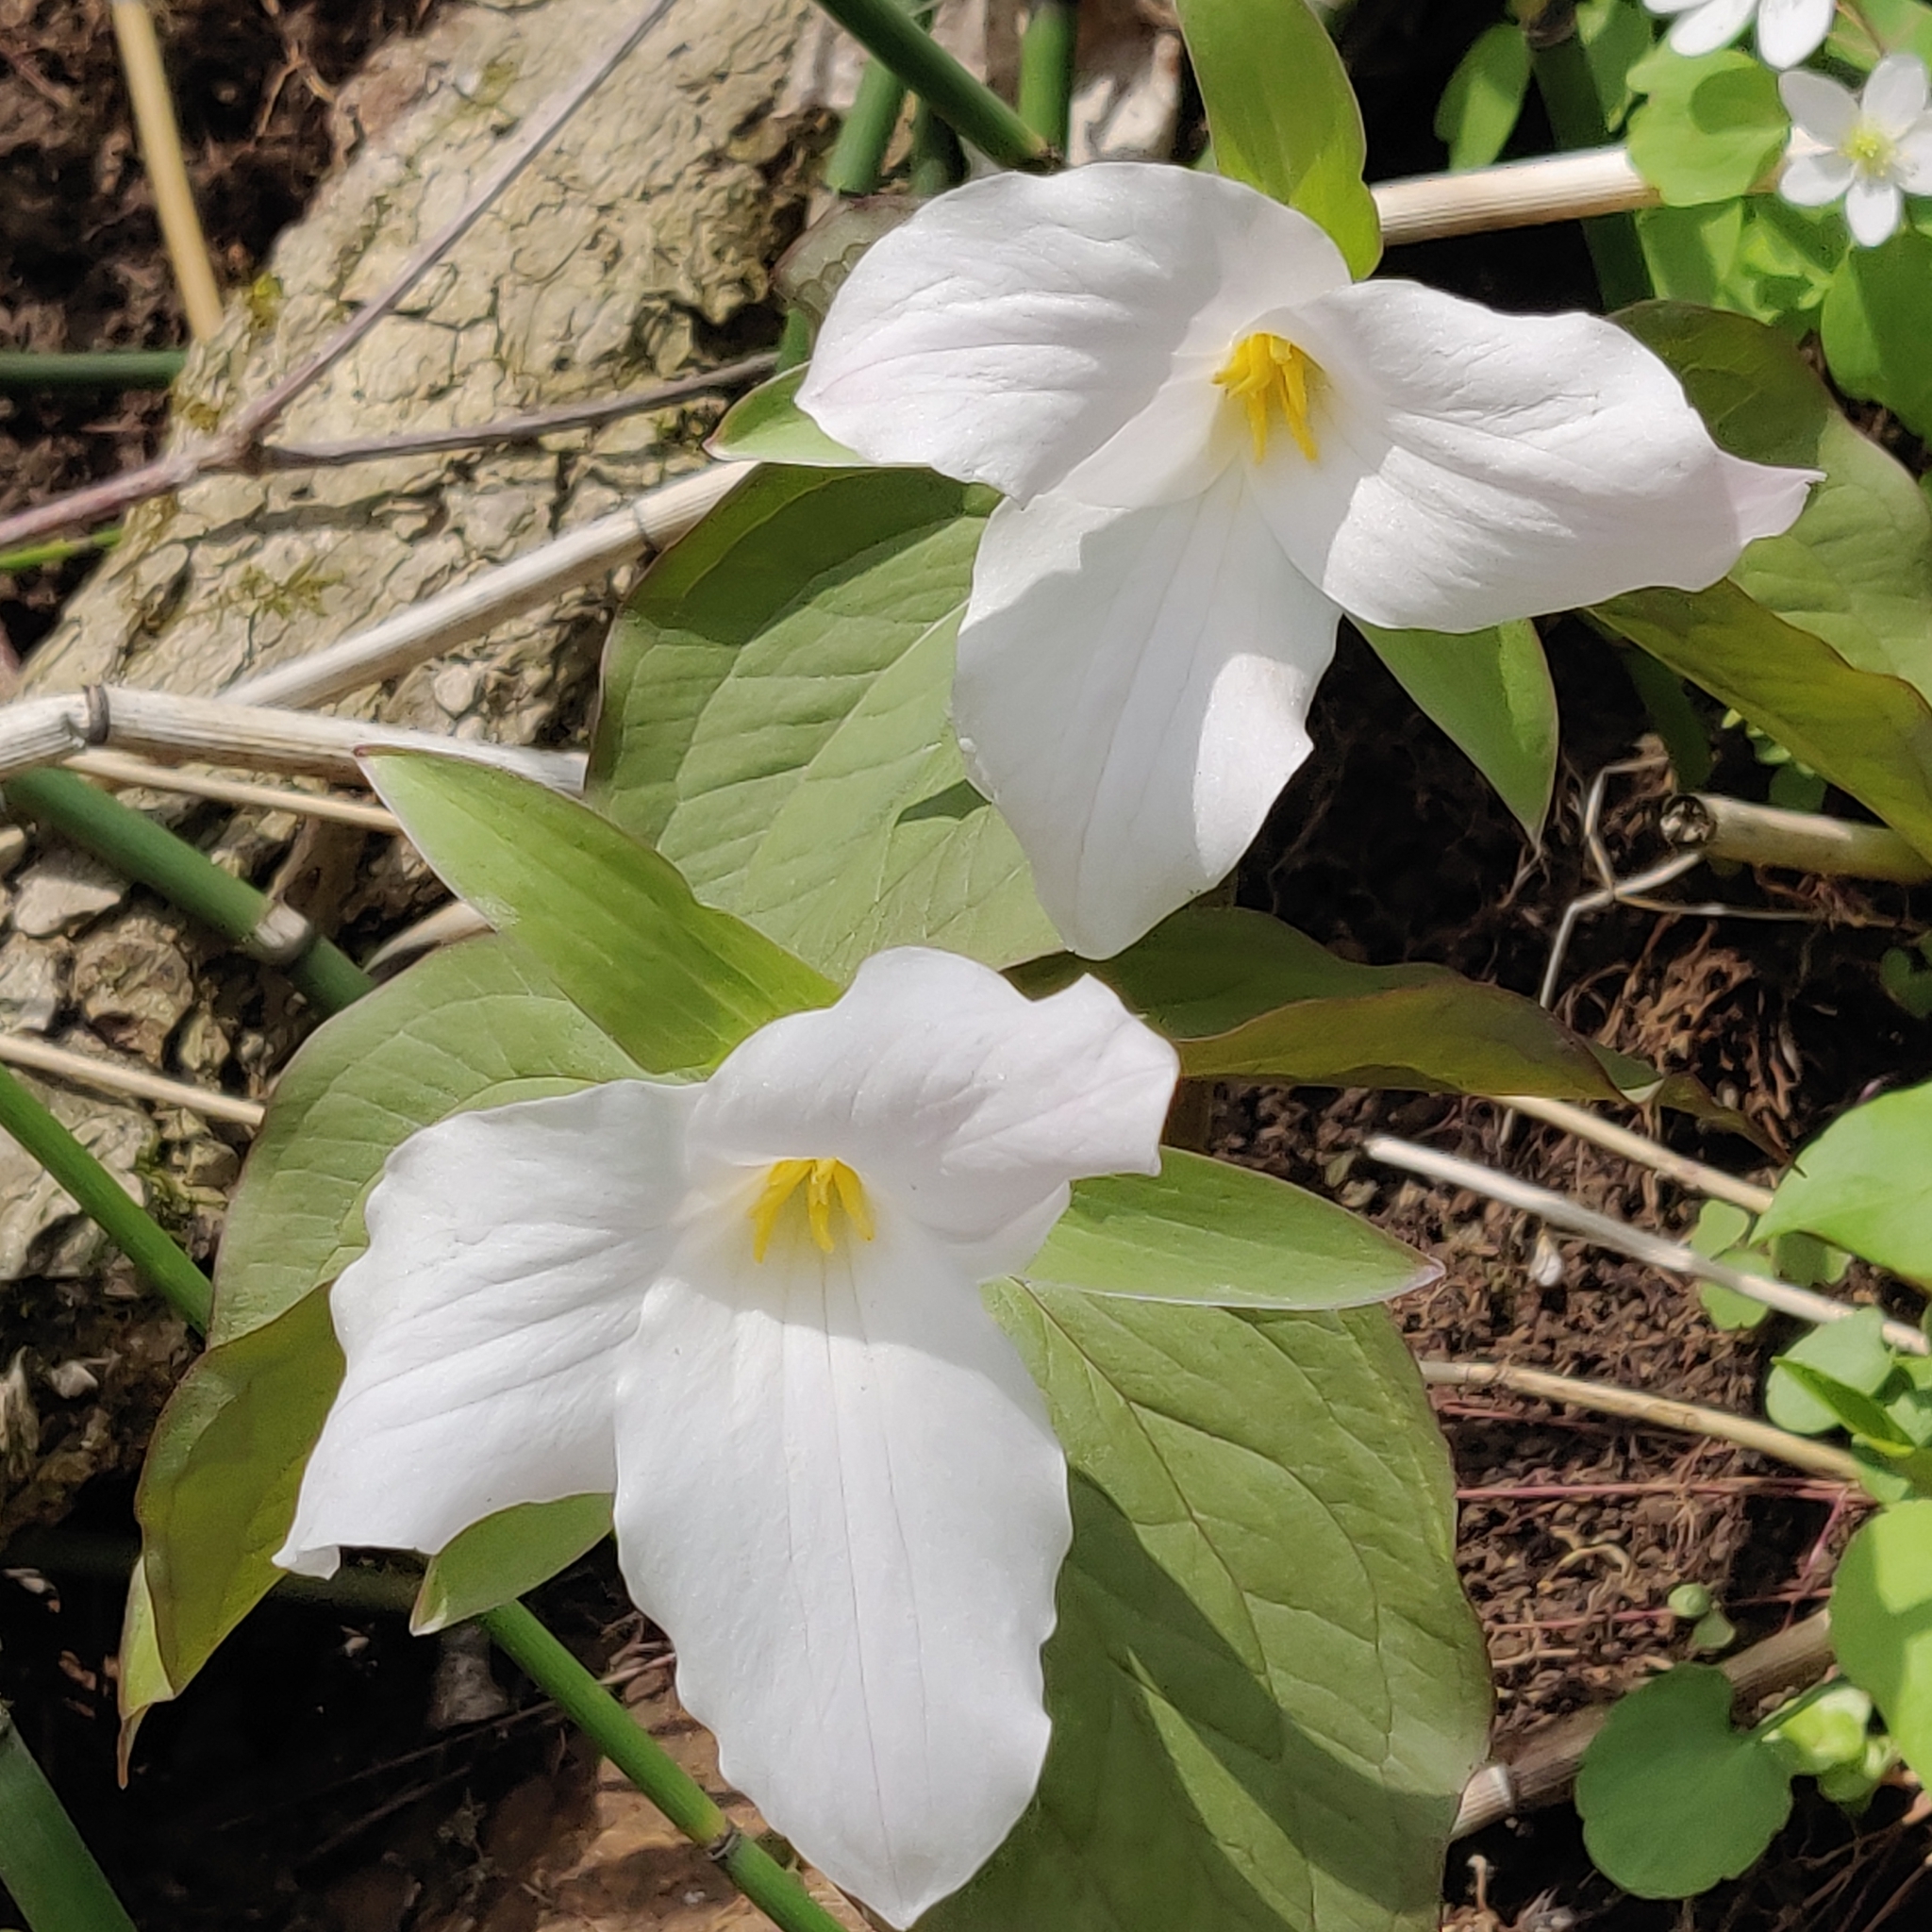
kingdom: Plantae
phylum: Tracheophyta
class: Liliopsida
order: Liliales
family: Melanthiaceae
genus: Trillium
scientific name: Trillium grandiflorum
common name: Great white trillium
